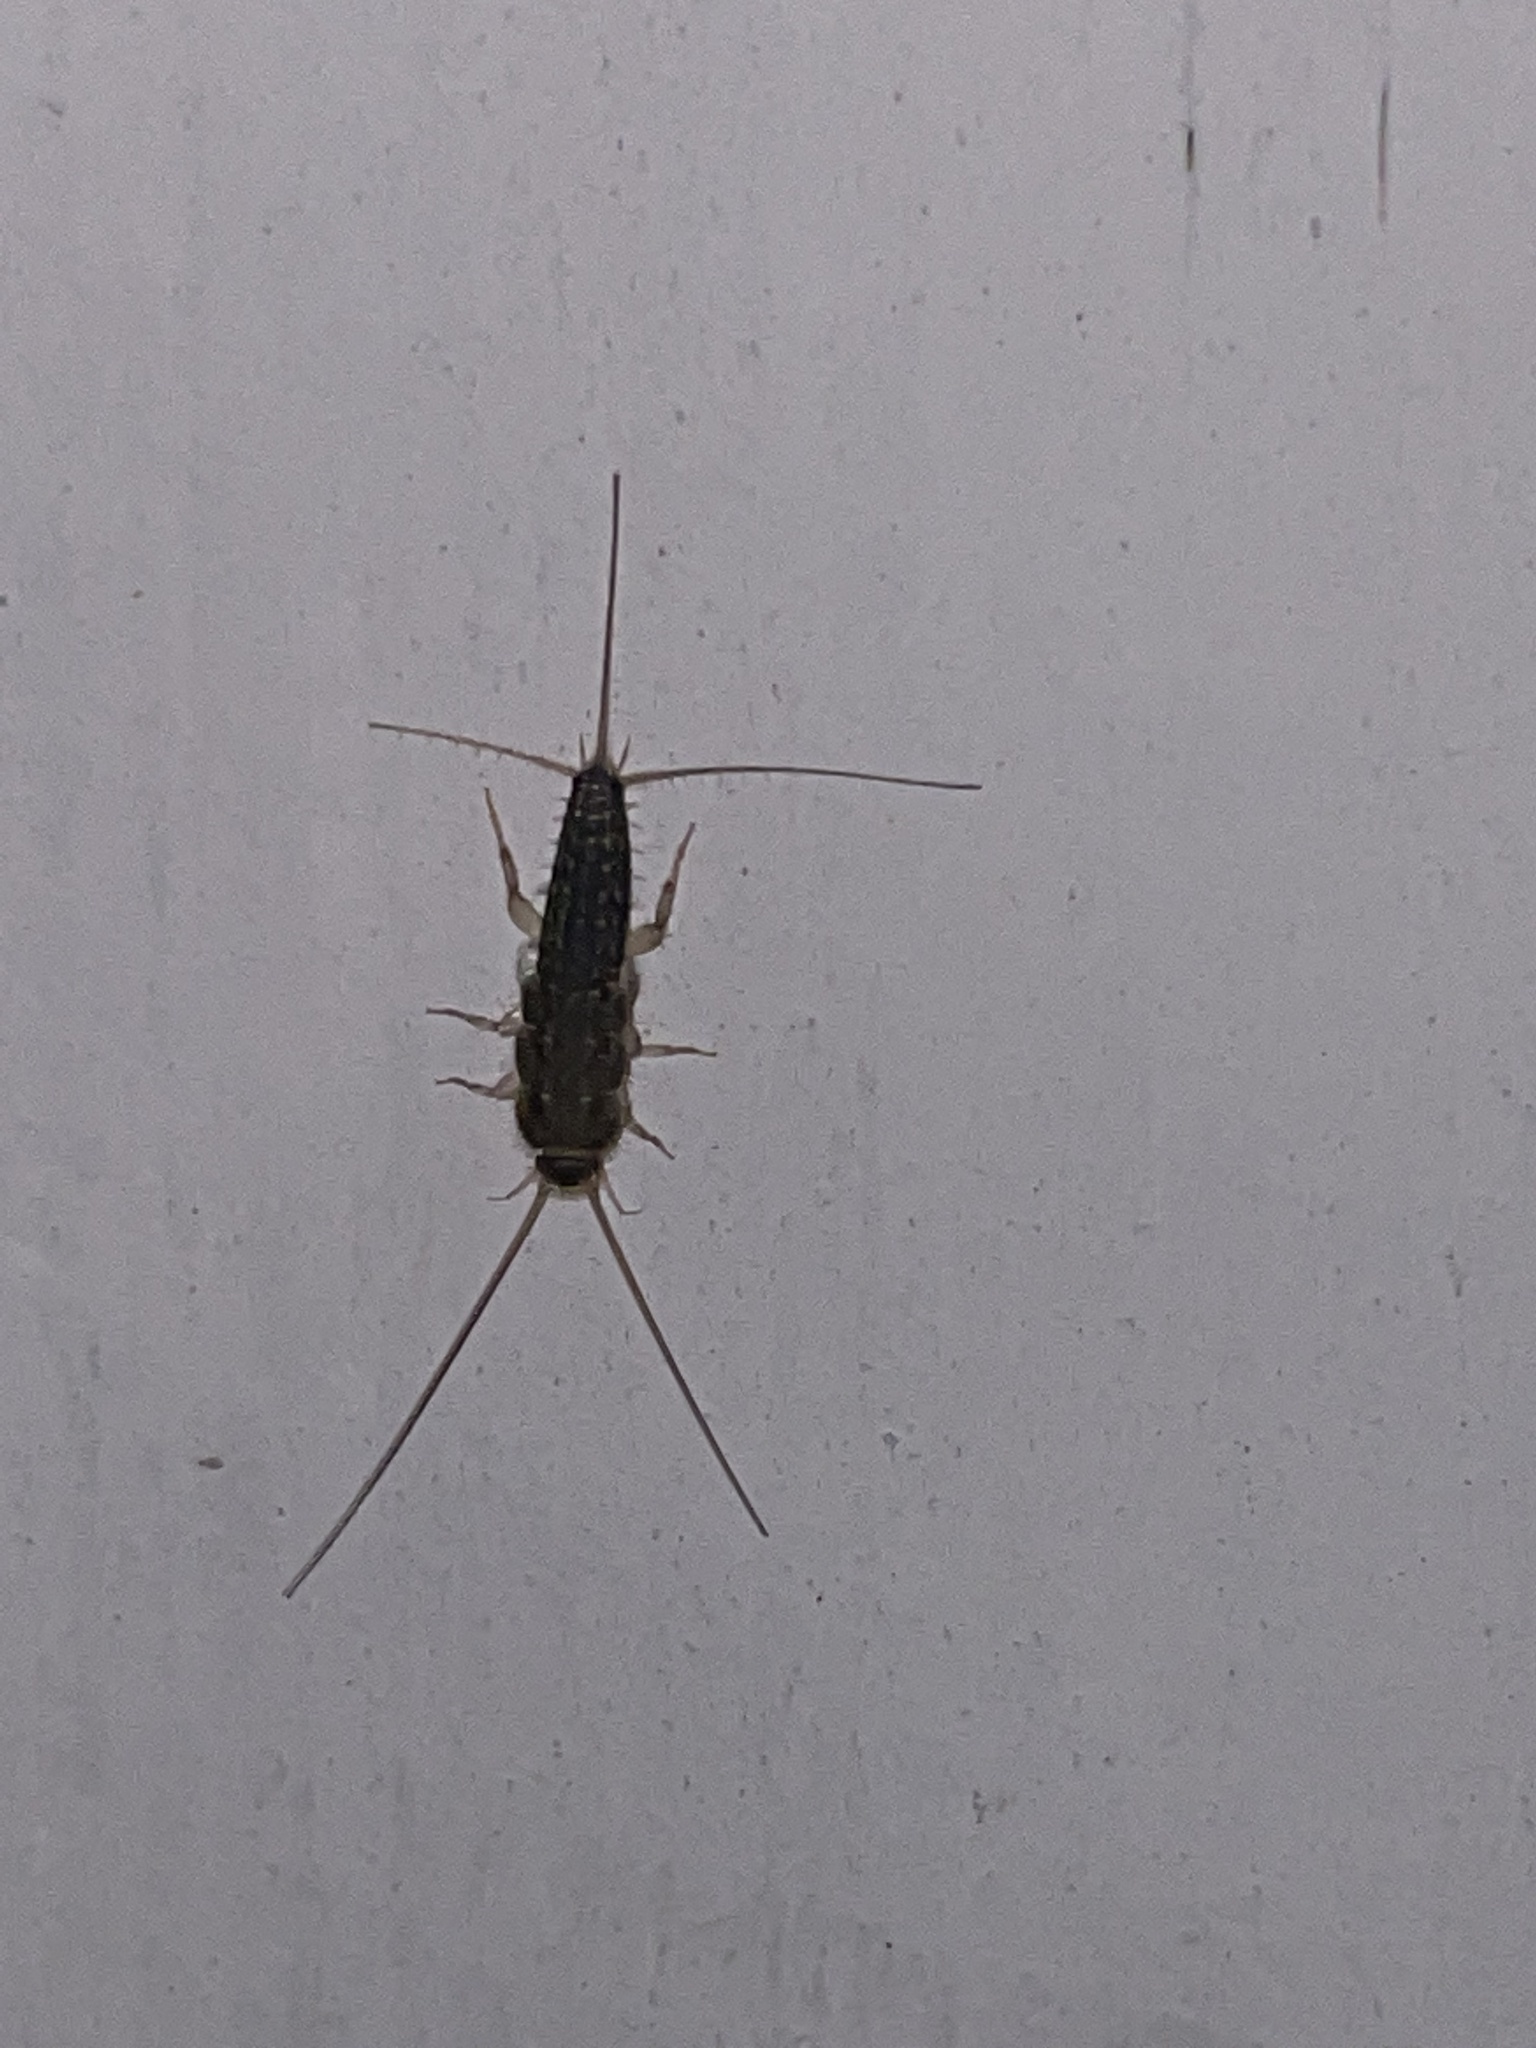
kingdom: Animalia
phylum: Arthropoda
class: Insecta
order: Zygentoma
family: Lepismatidae
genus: Ctenolepisma
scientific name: Ctenolepisma lineata
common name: Four-lined silverfish
